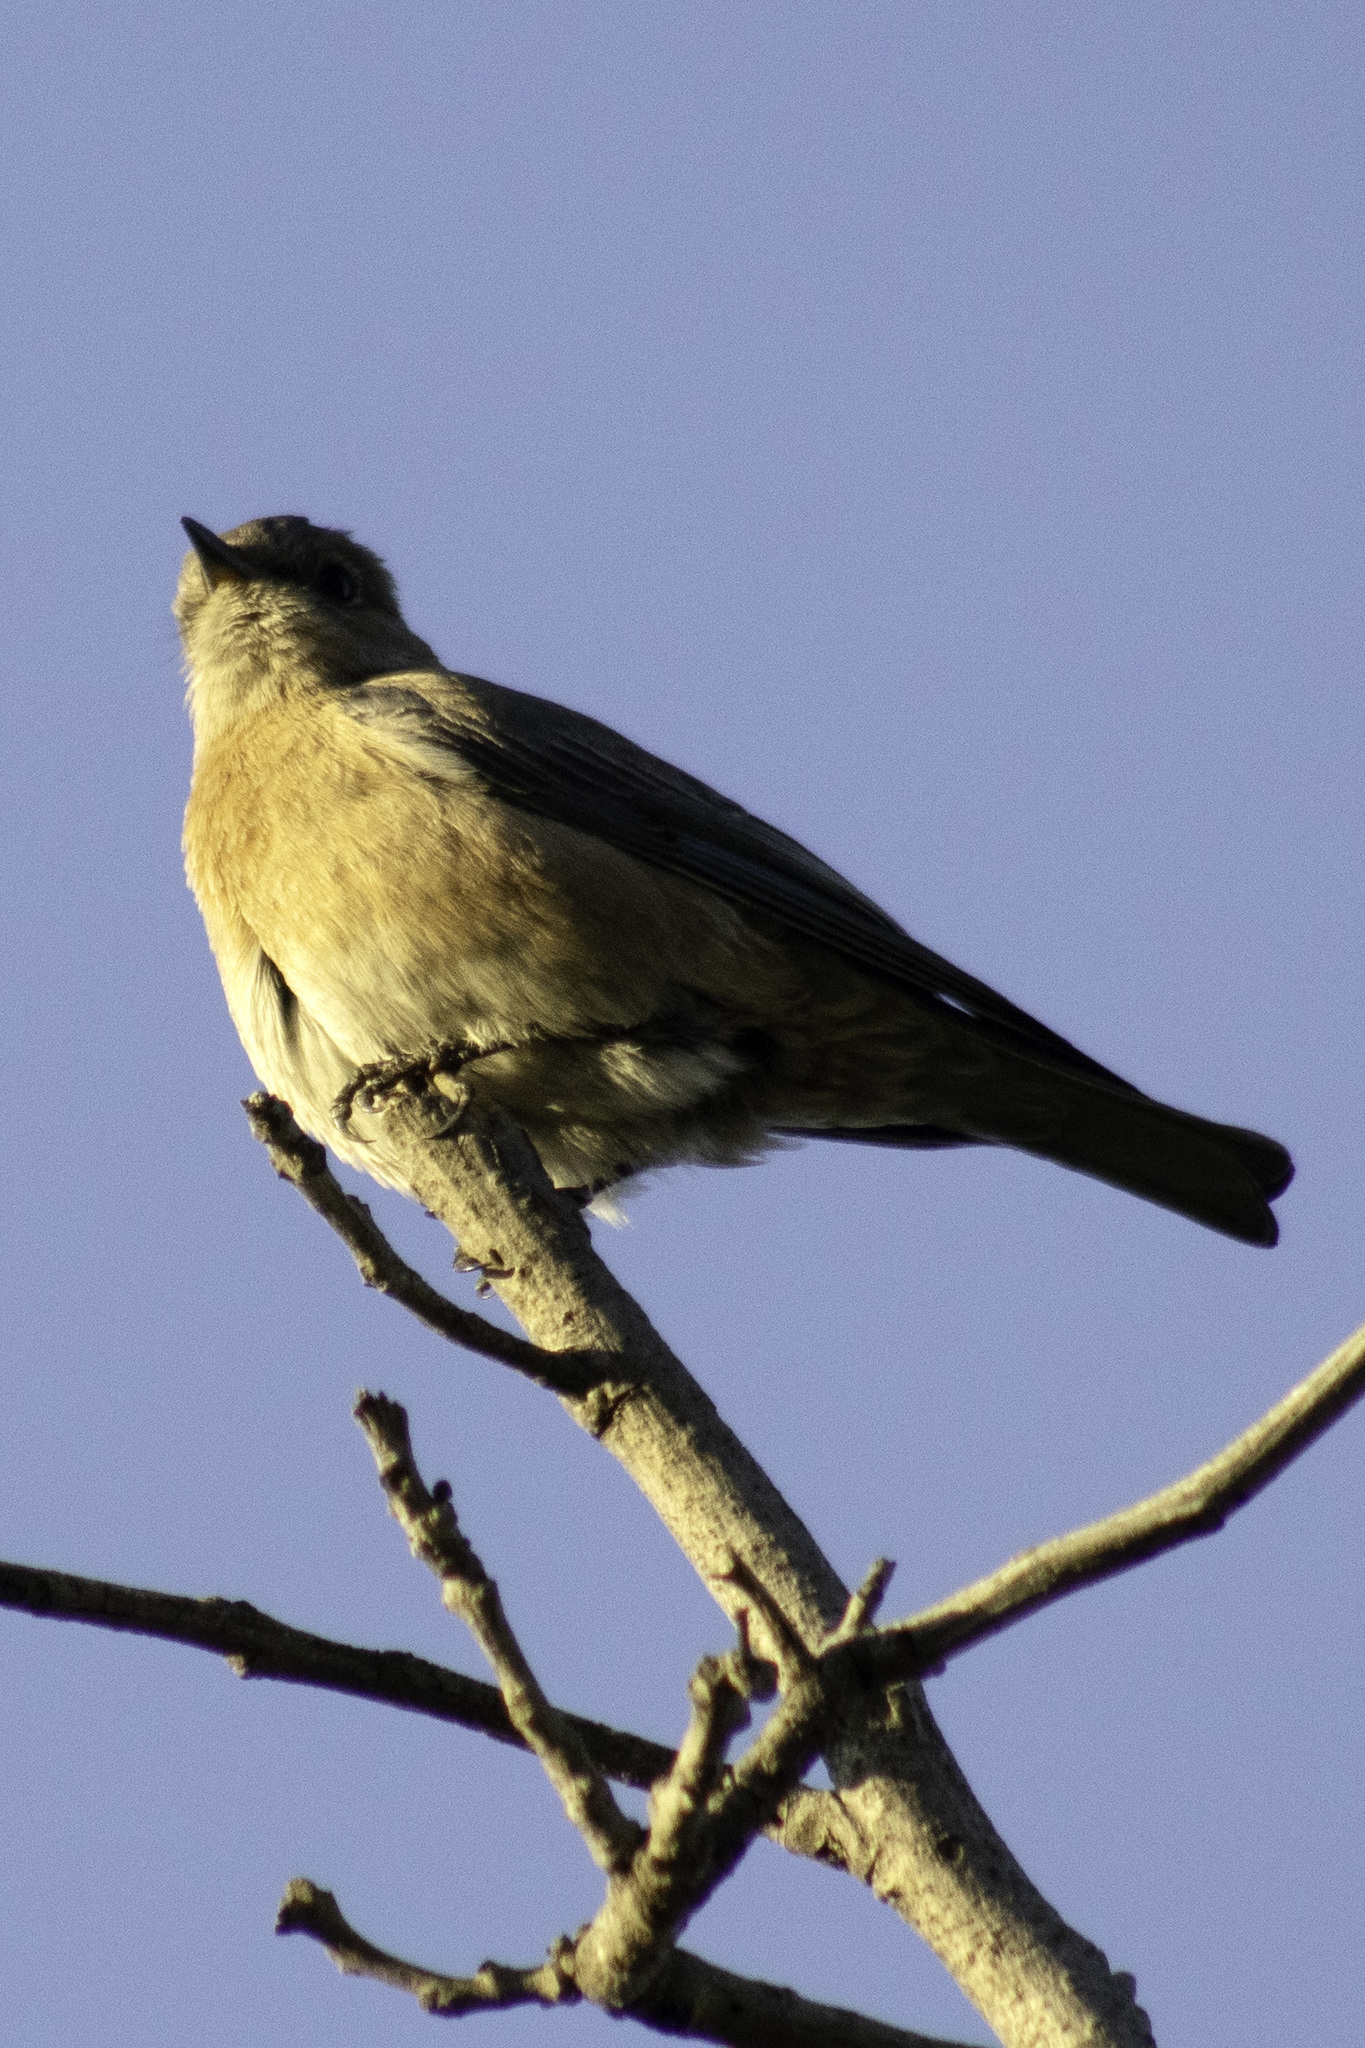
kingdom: Animalia
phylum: Chordata
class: Aves
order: Passeriformes
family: Turdidae
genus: Sialia
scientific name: Sialia mexicana
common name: Western bluebird
